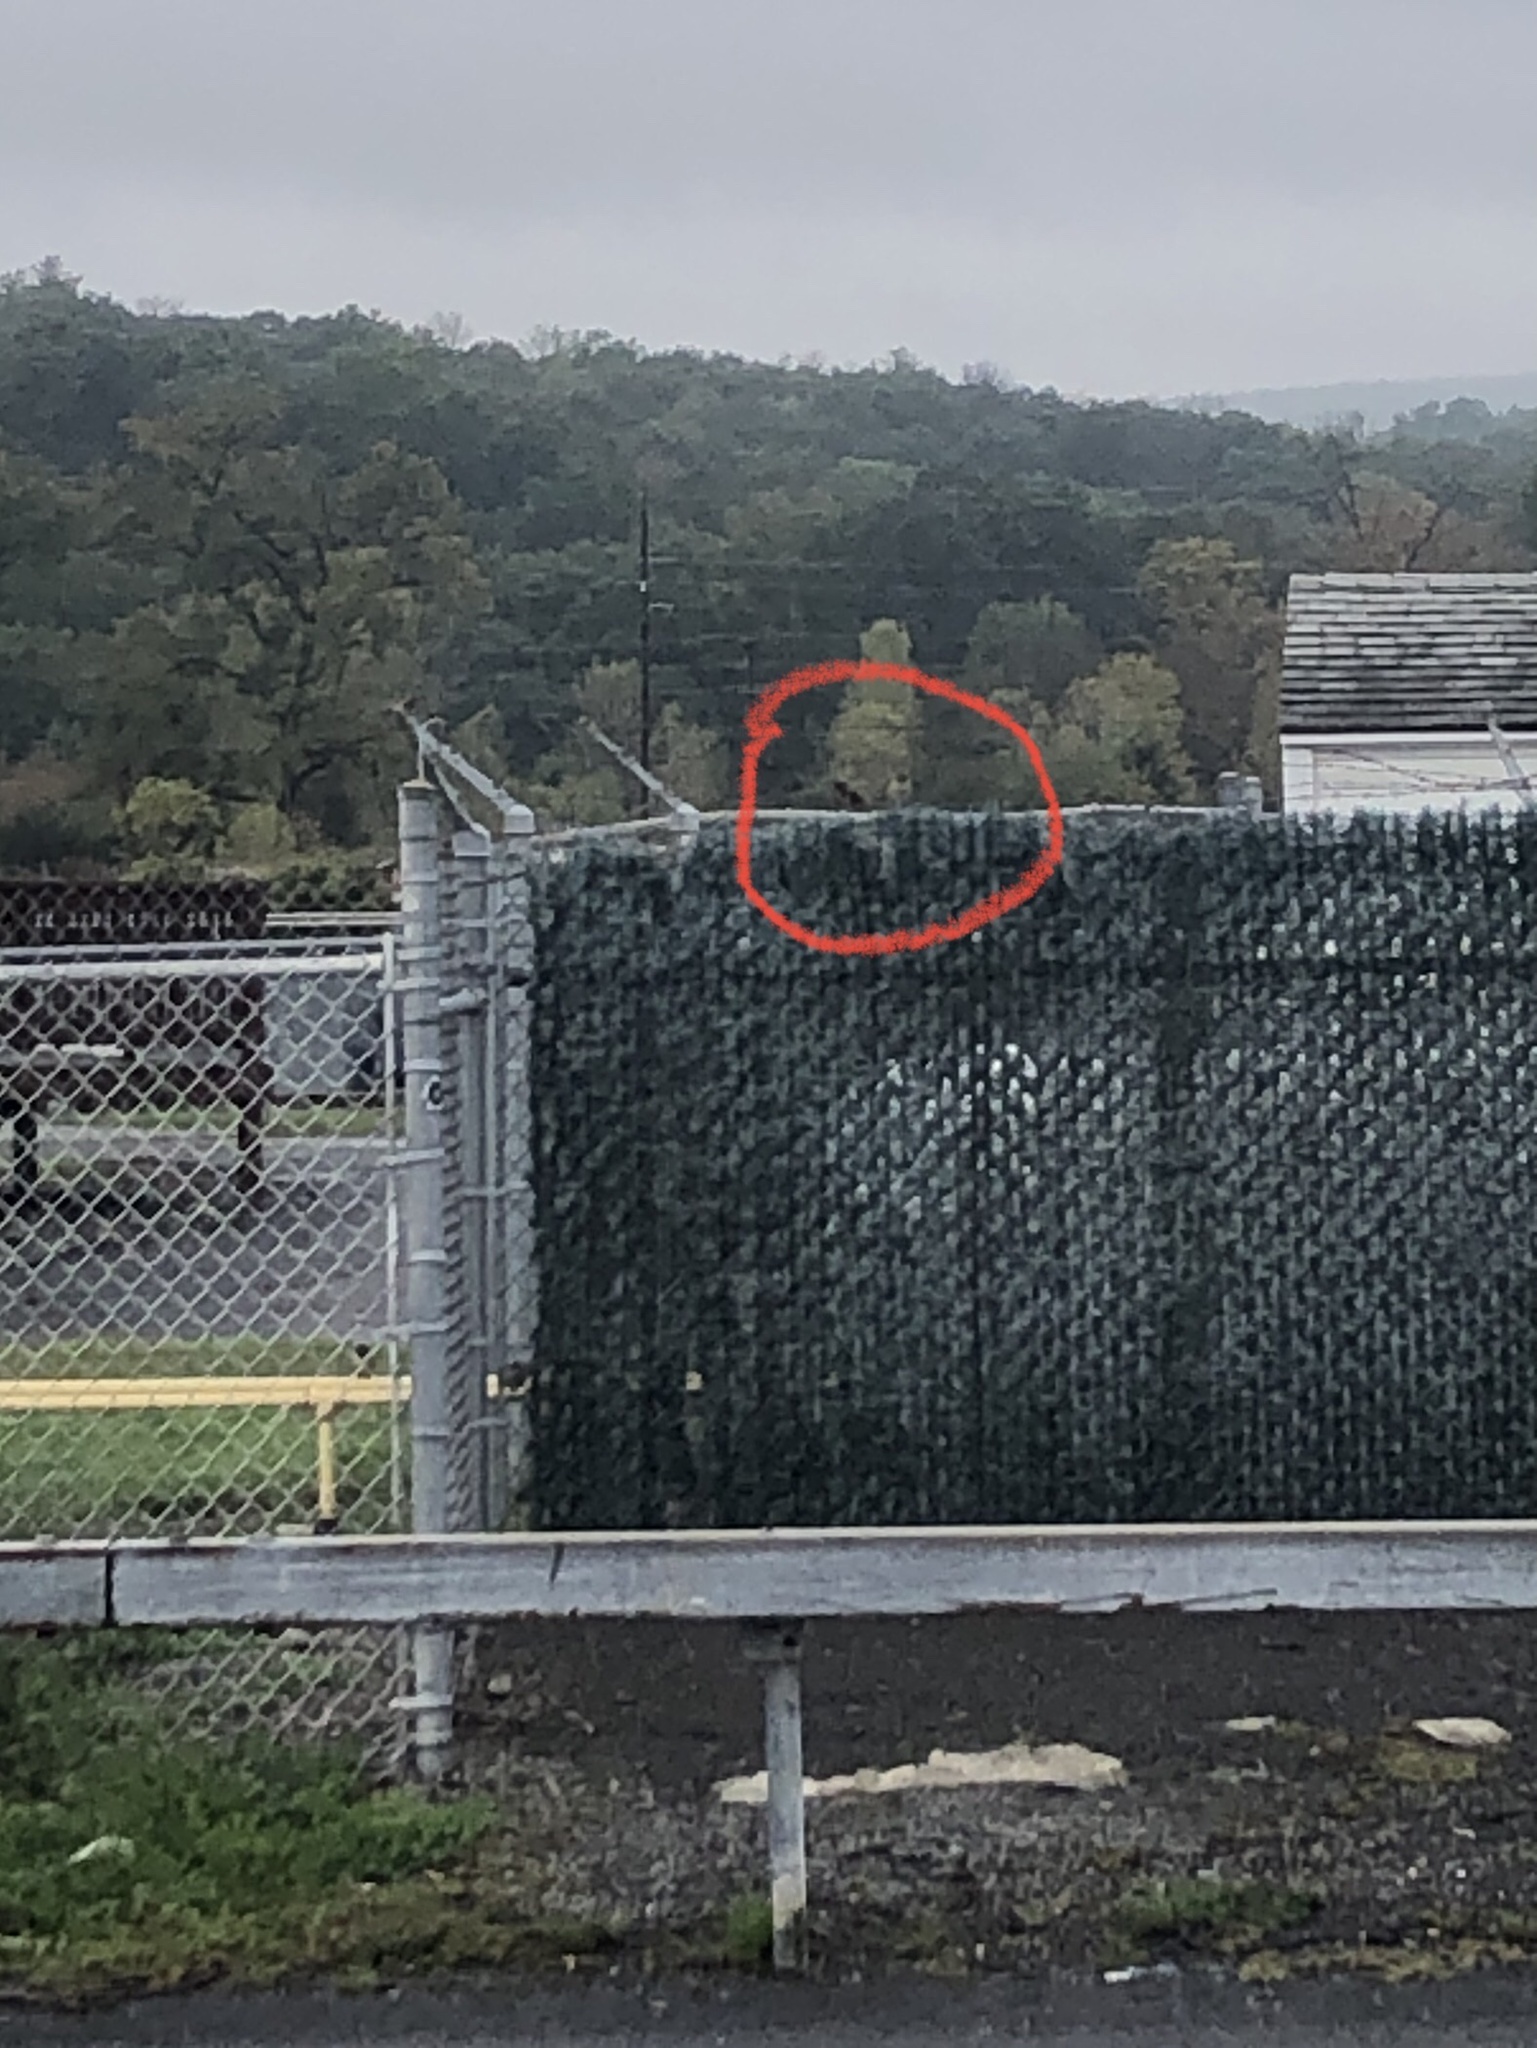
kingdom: Animalia
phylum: Chordata
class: Aves
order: Passeriformes
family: Passeridae
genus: Passer
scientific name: Passer domesticus
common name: House sparrow
